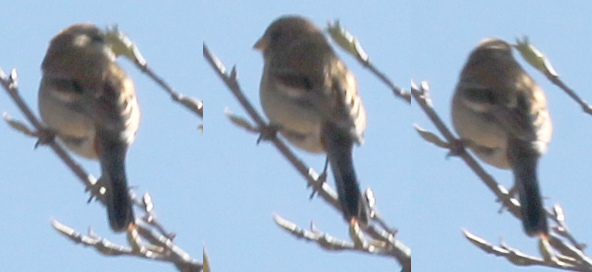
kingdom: Animalia
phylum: Chordata
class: Aves
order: Passeriformes
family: Thraupidae
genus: Catamenia
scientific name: Catamenia analis
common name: Band-tailed seedeater
